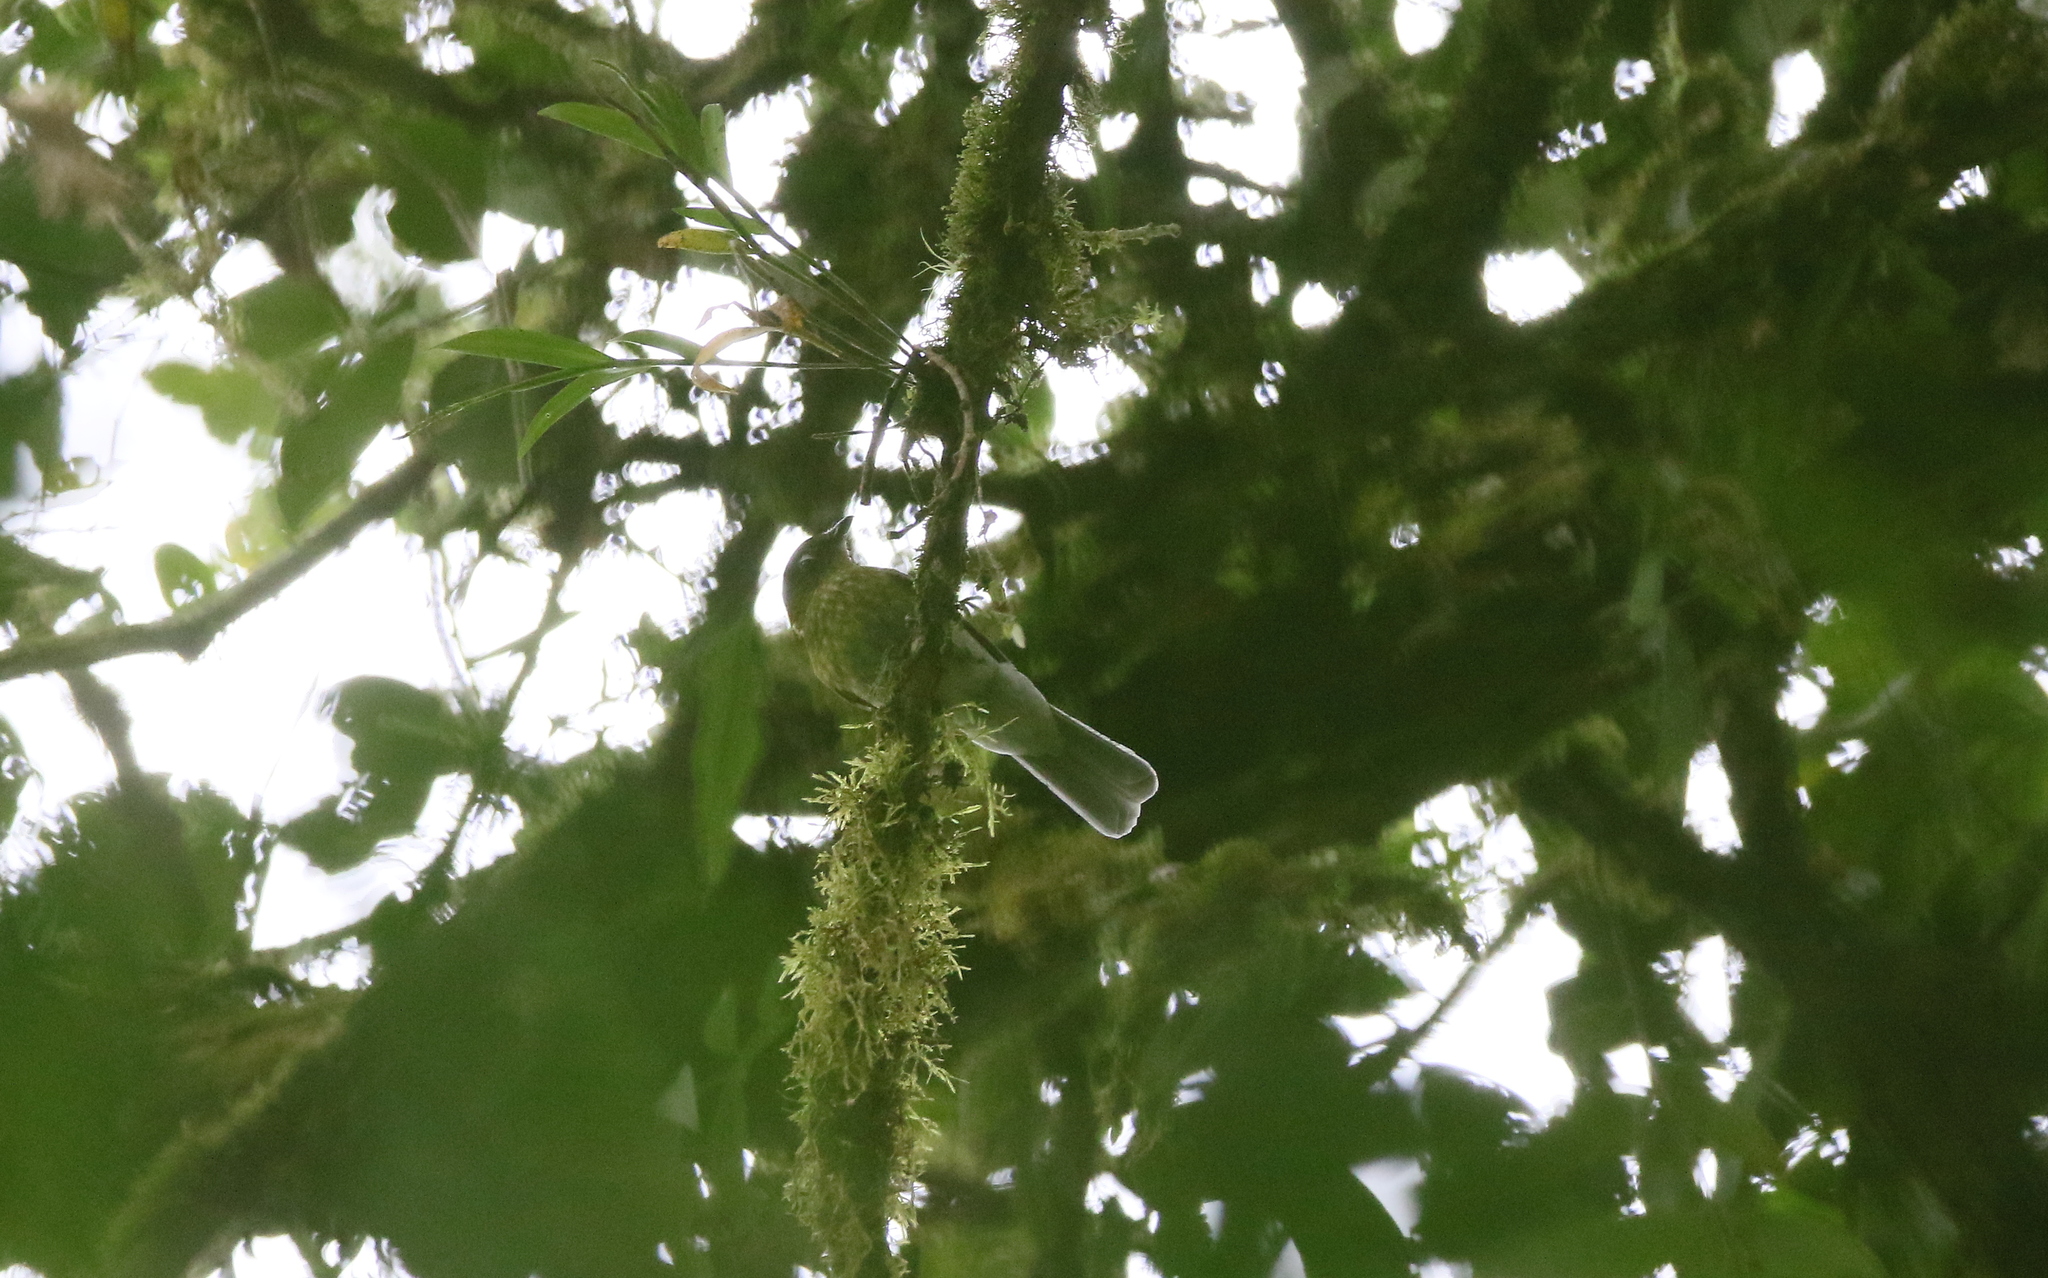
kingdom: Animalia
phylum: Chordata
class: Aves
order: Passeriformes
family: Cotingidae
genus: Snowornis
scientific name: Snowornis subalaris
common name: Grey-tailed piha
